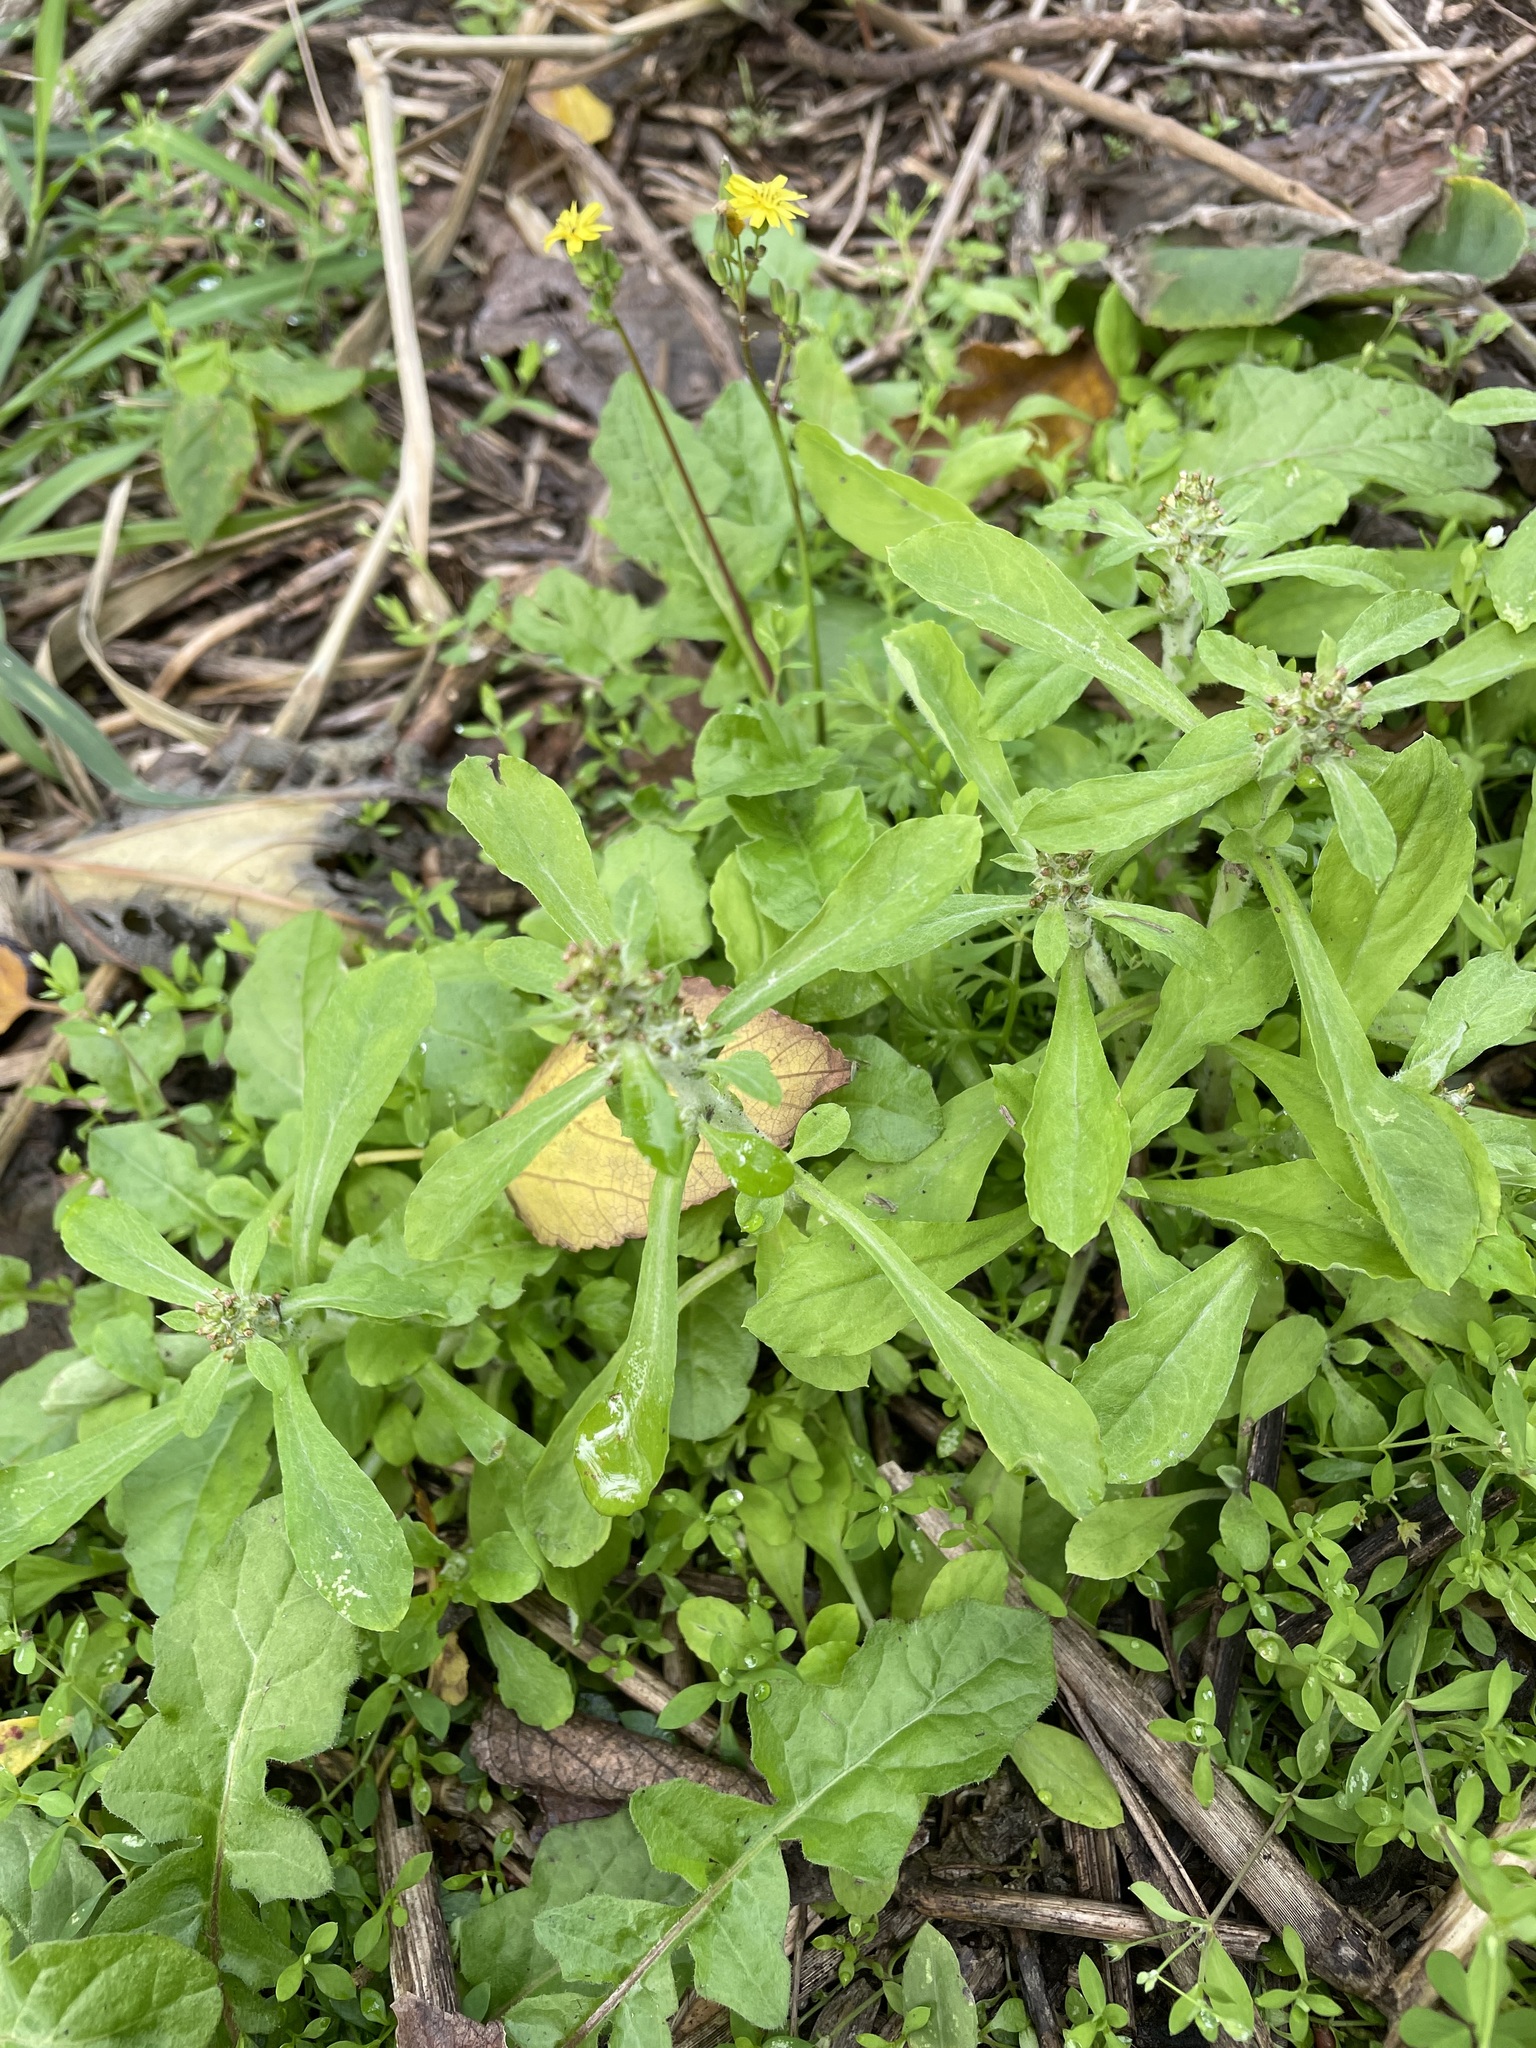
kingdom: Plantae
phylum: Tracheophyta
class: Magnoliopsida
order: Asterales
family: Asteraceae
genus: Gamochaeta
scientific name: Gamochaeta purpurea
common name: Purple cudweed
